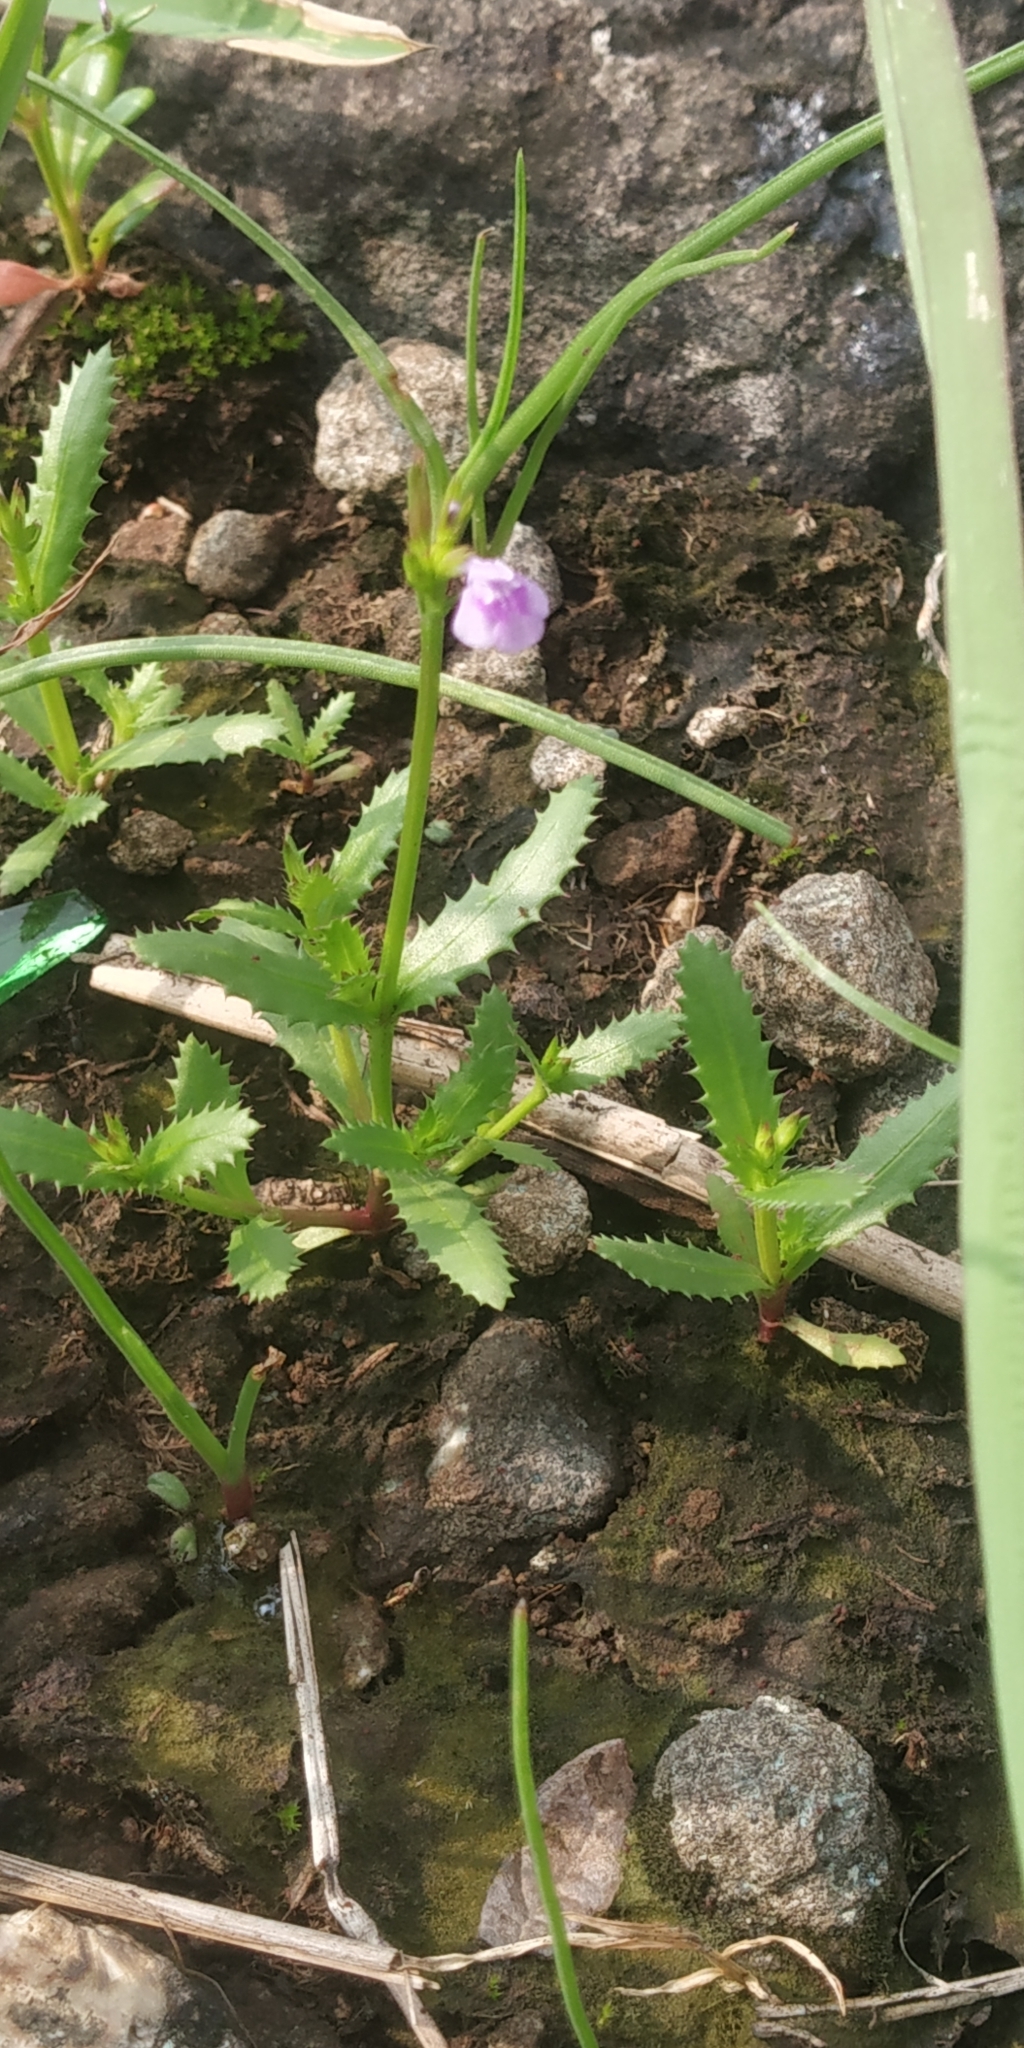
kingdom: Plantae
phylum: Tracheophyta
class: Magnoliopsida
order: Lamiales
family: Linderniaceae
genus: Bonnaya
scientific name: Bonnaya ciliata
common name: Hairy slitwort
